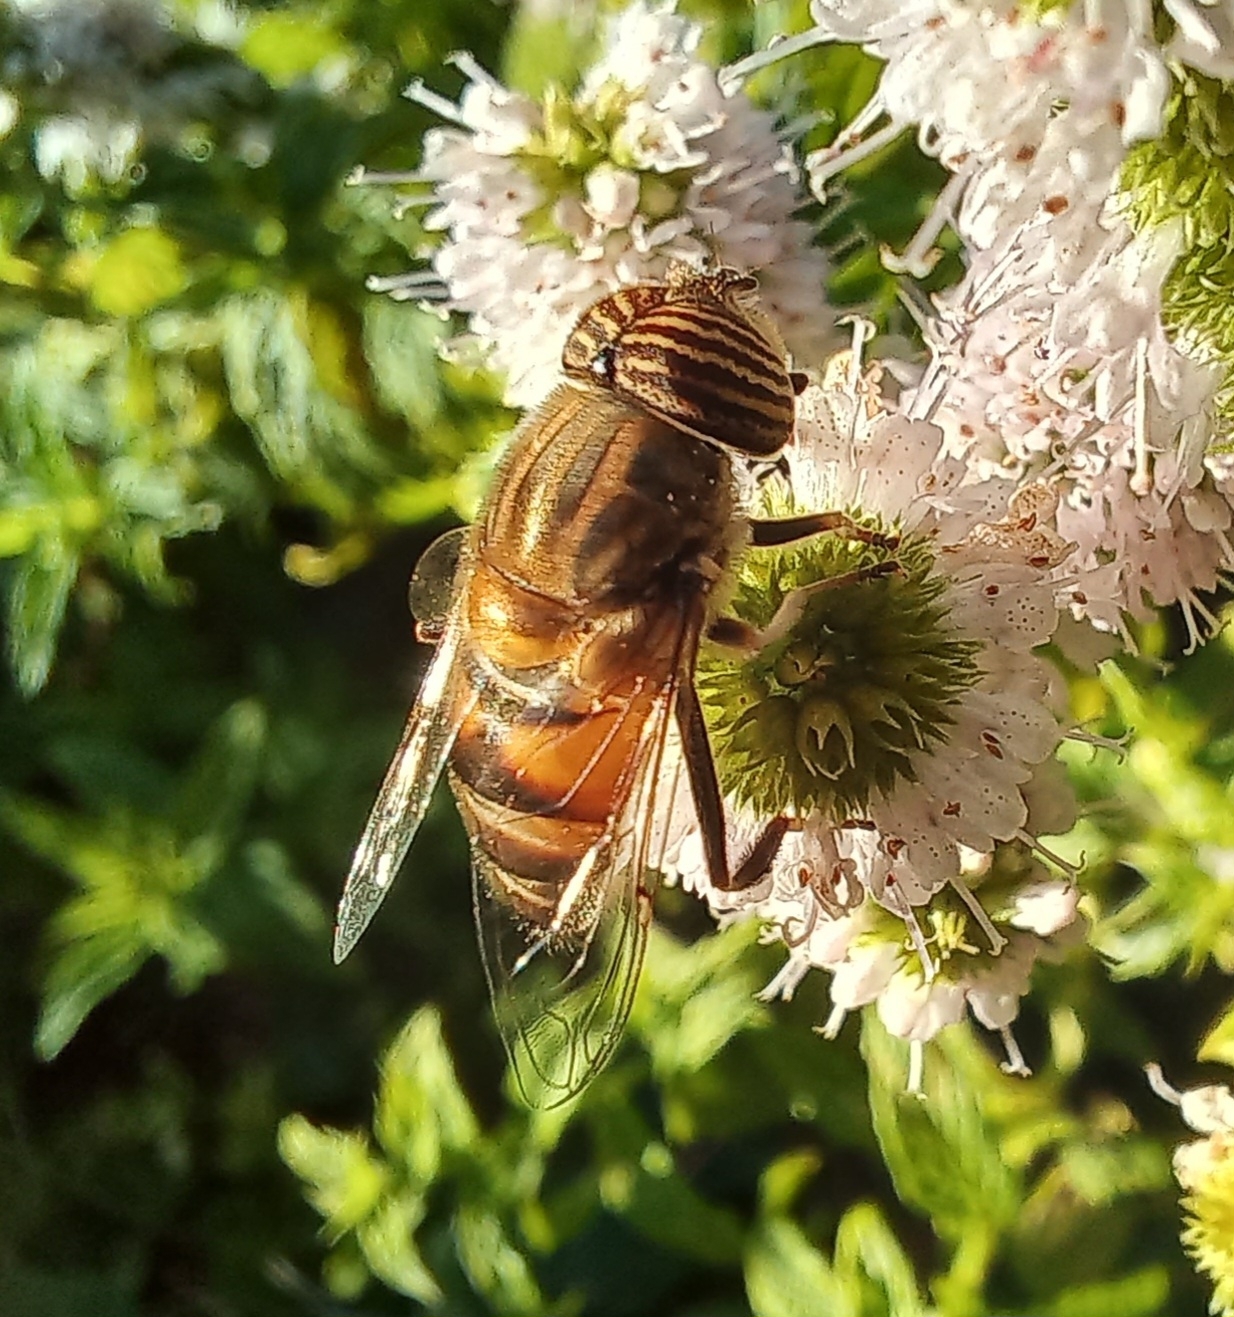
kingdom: Animalia
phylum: Arthropoda
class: Insecta
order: Diptera
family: Syrphidae
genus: Eristalinus
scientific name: Eristalinus taeniops
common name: Syrphid fly
